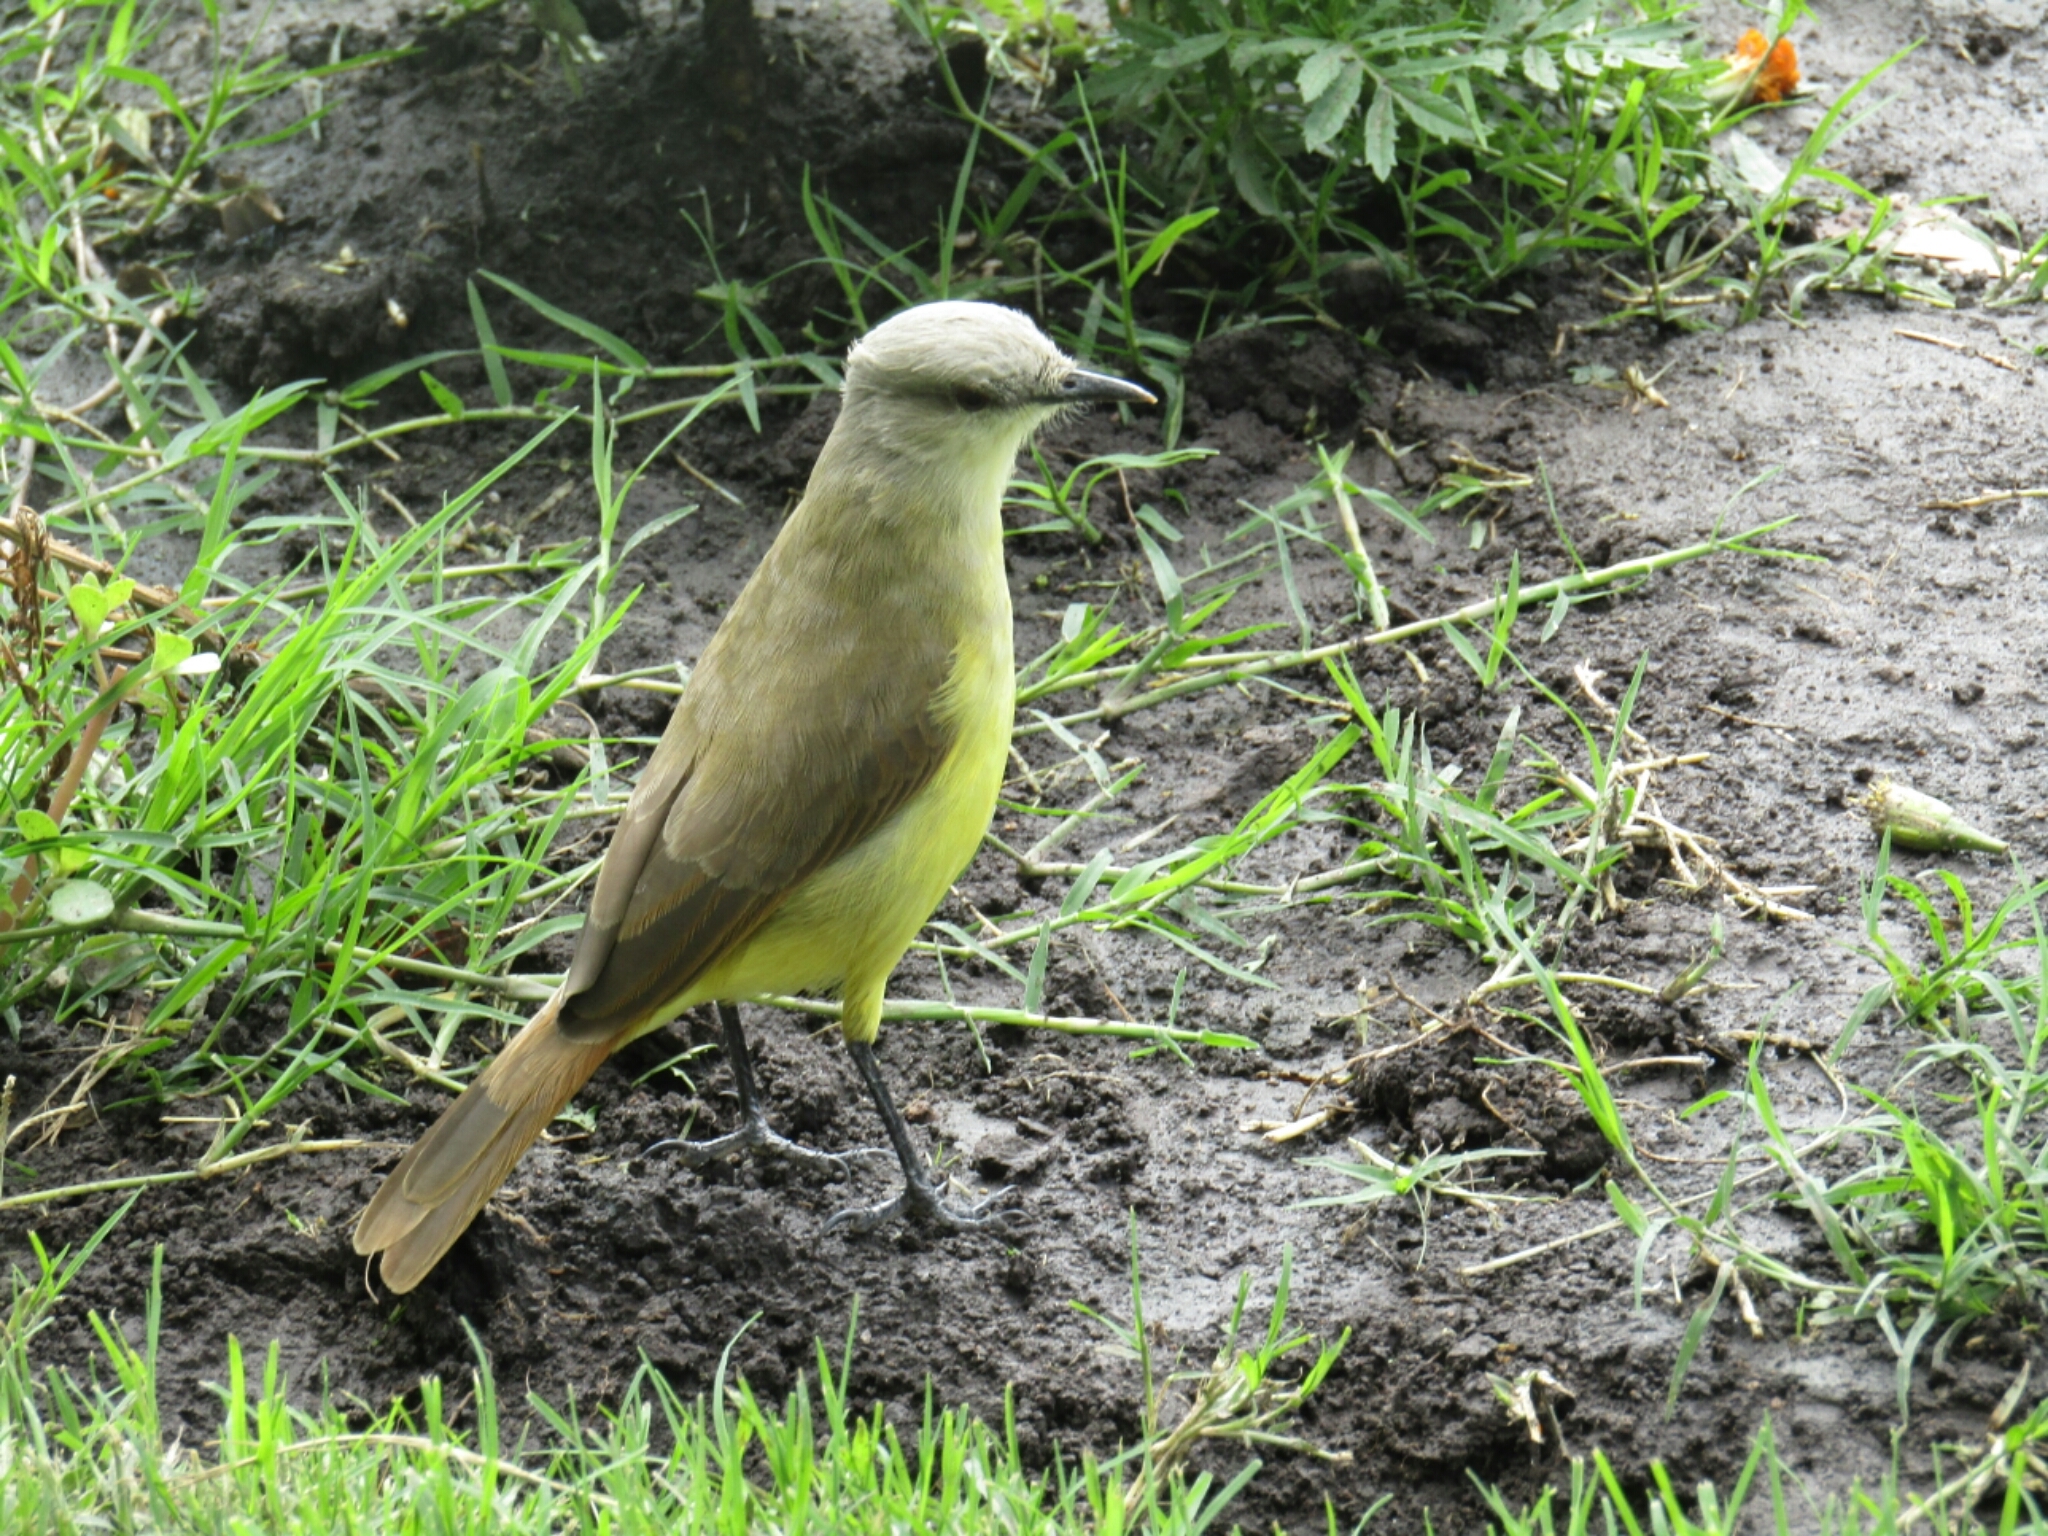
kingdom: Animalia
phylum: Chordata
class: Aves
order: Passeriformes
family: Tyrannidae
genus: Machetornis
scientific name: Machetornis rixosa
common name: Cattle tyrant
